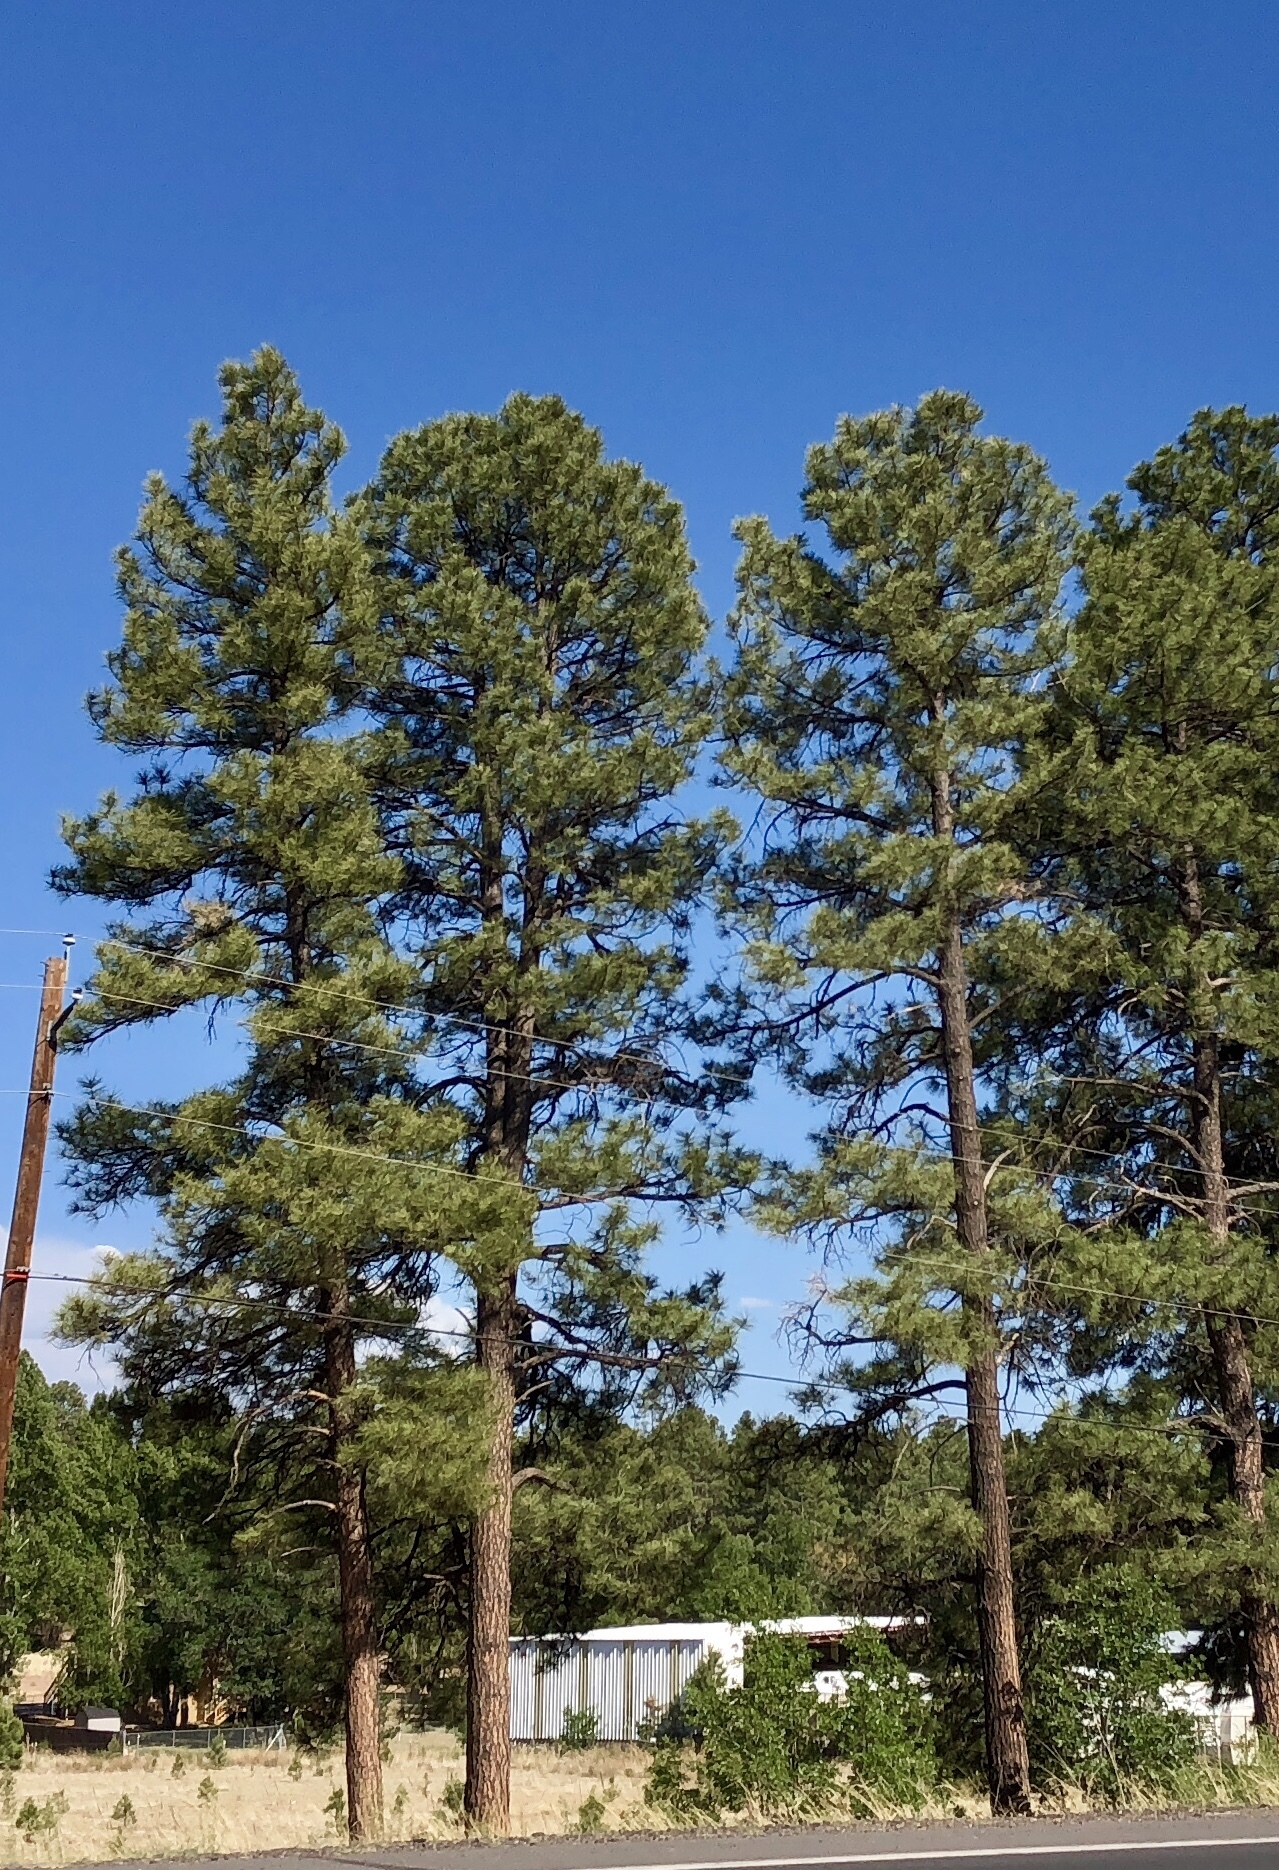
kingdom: Plantae
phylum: Tracheophyta
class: Pinopsida
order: Pinales
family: Pinaceae
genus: Pinus
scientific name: Pinus ponderosa
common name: Western yellow-pine
